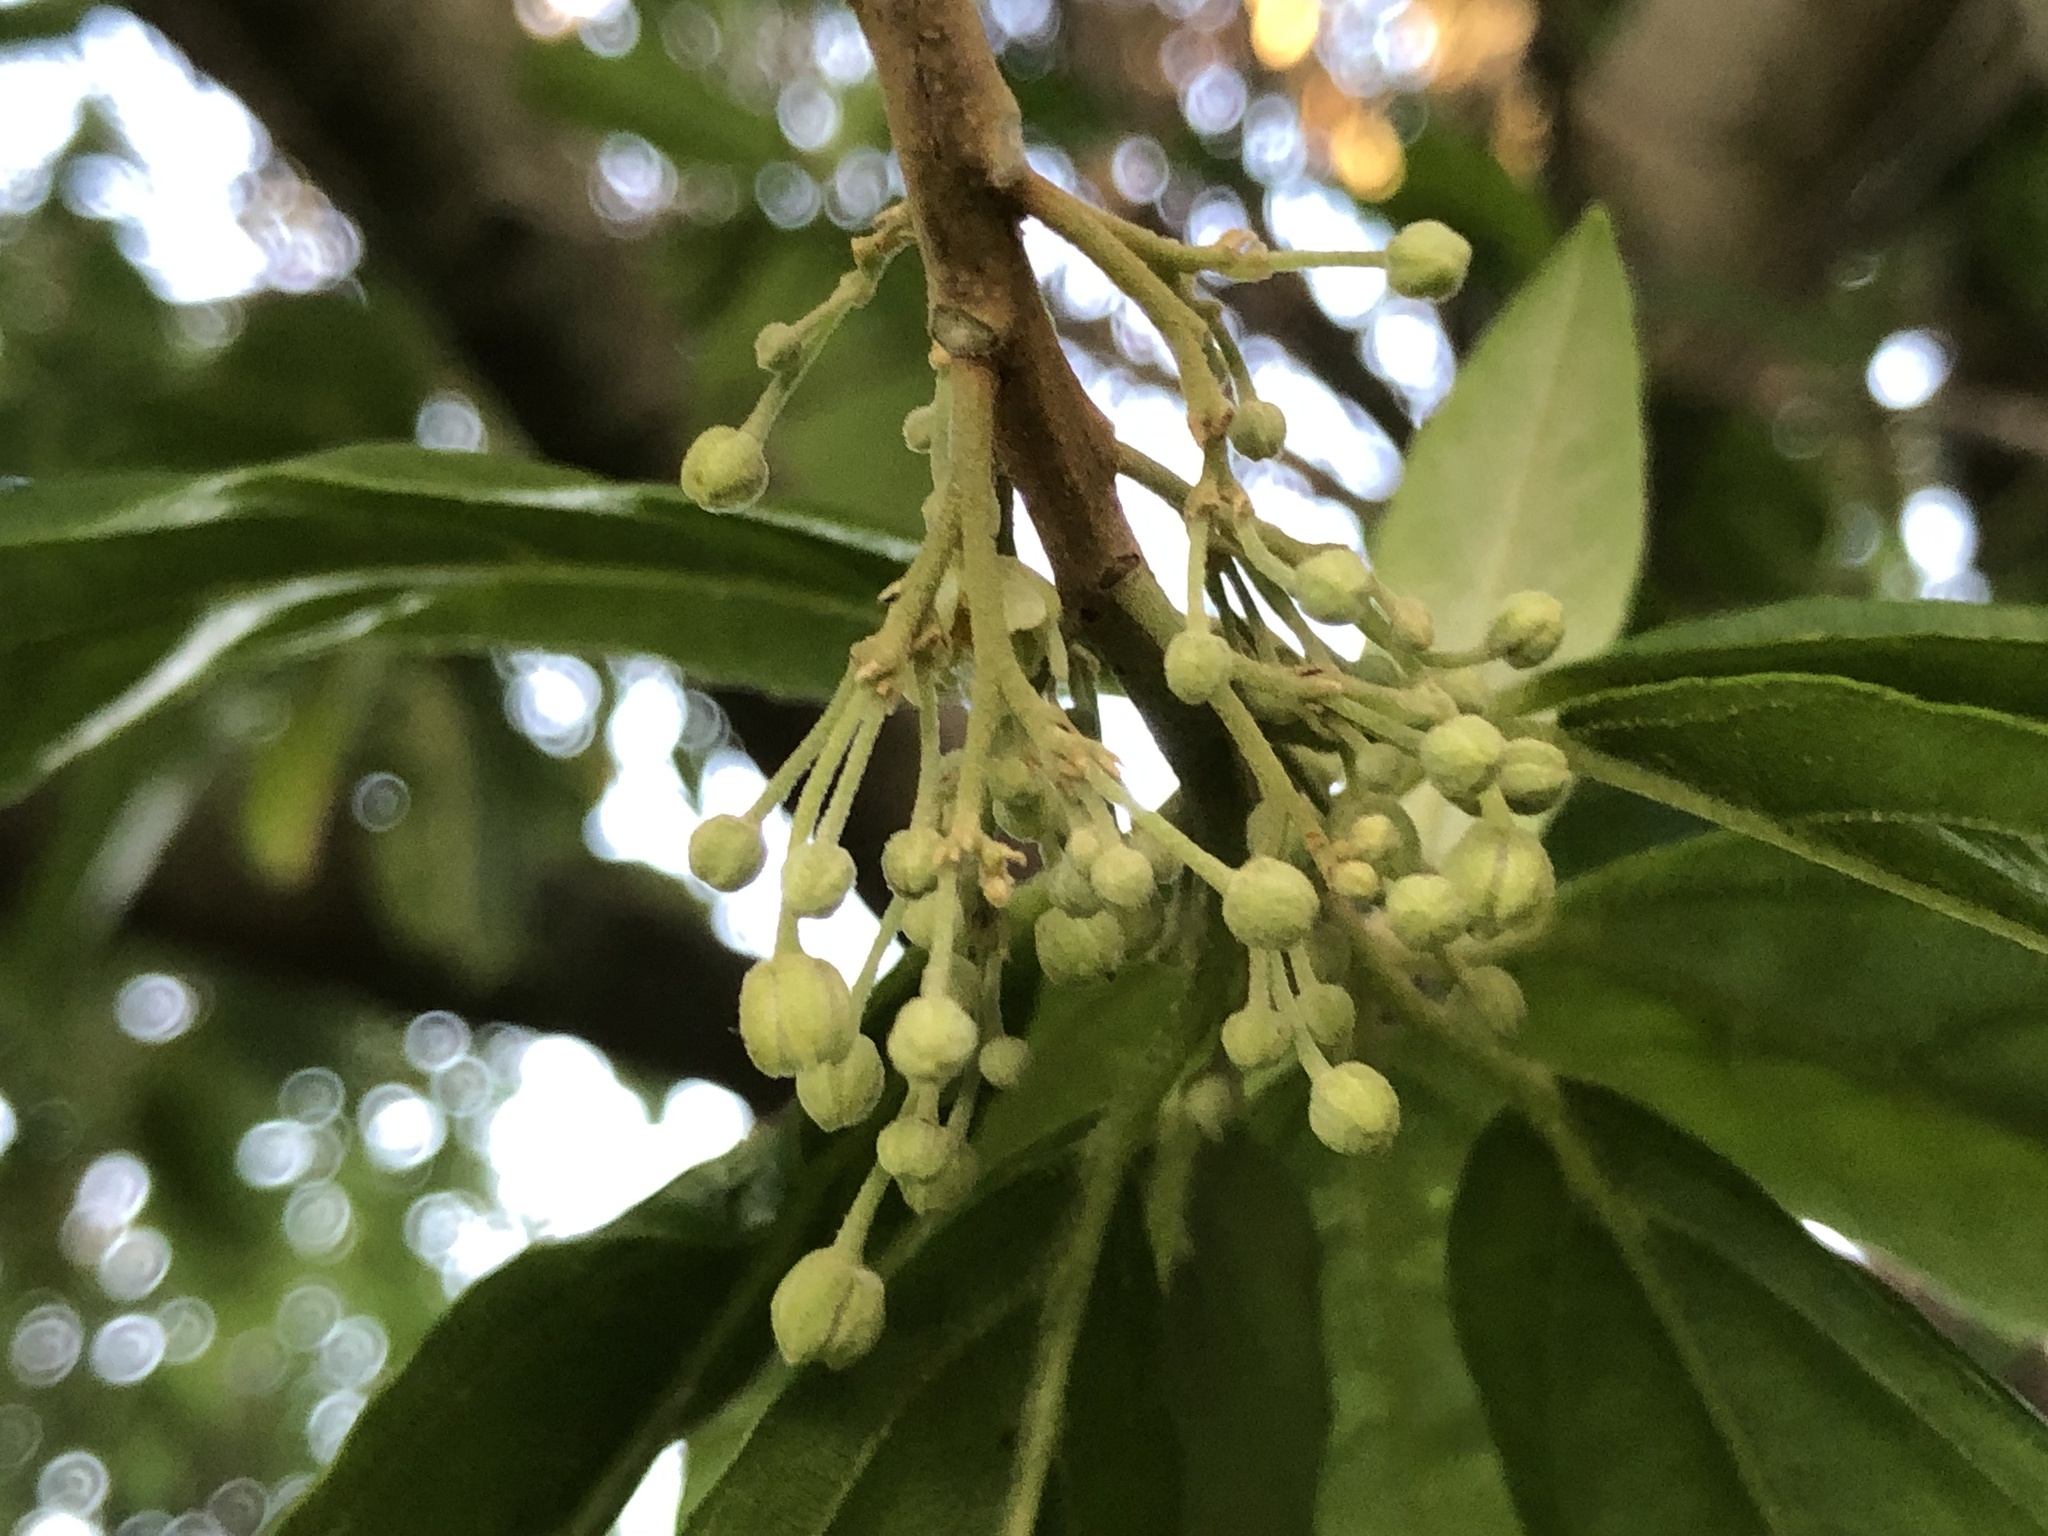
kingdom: Plantae
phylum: Tracheophyta
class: Magnoliopsida
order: Malpighiales
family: Achariaceae
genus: Kiggelaria
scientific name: Kiggelaria africana
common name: Wild peach
